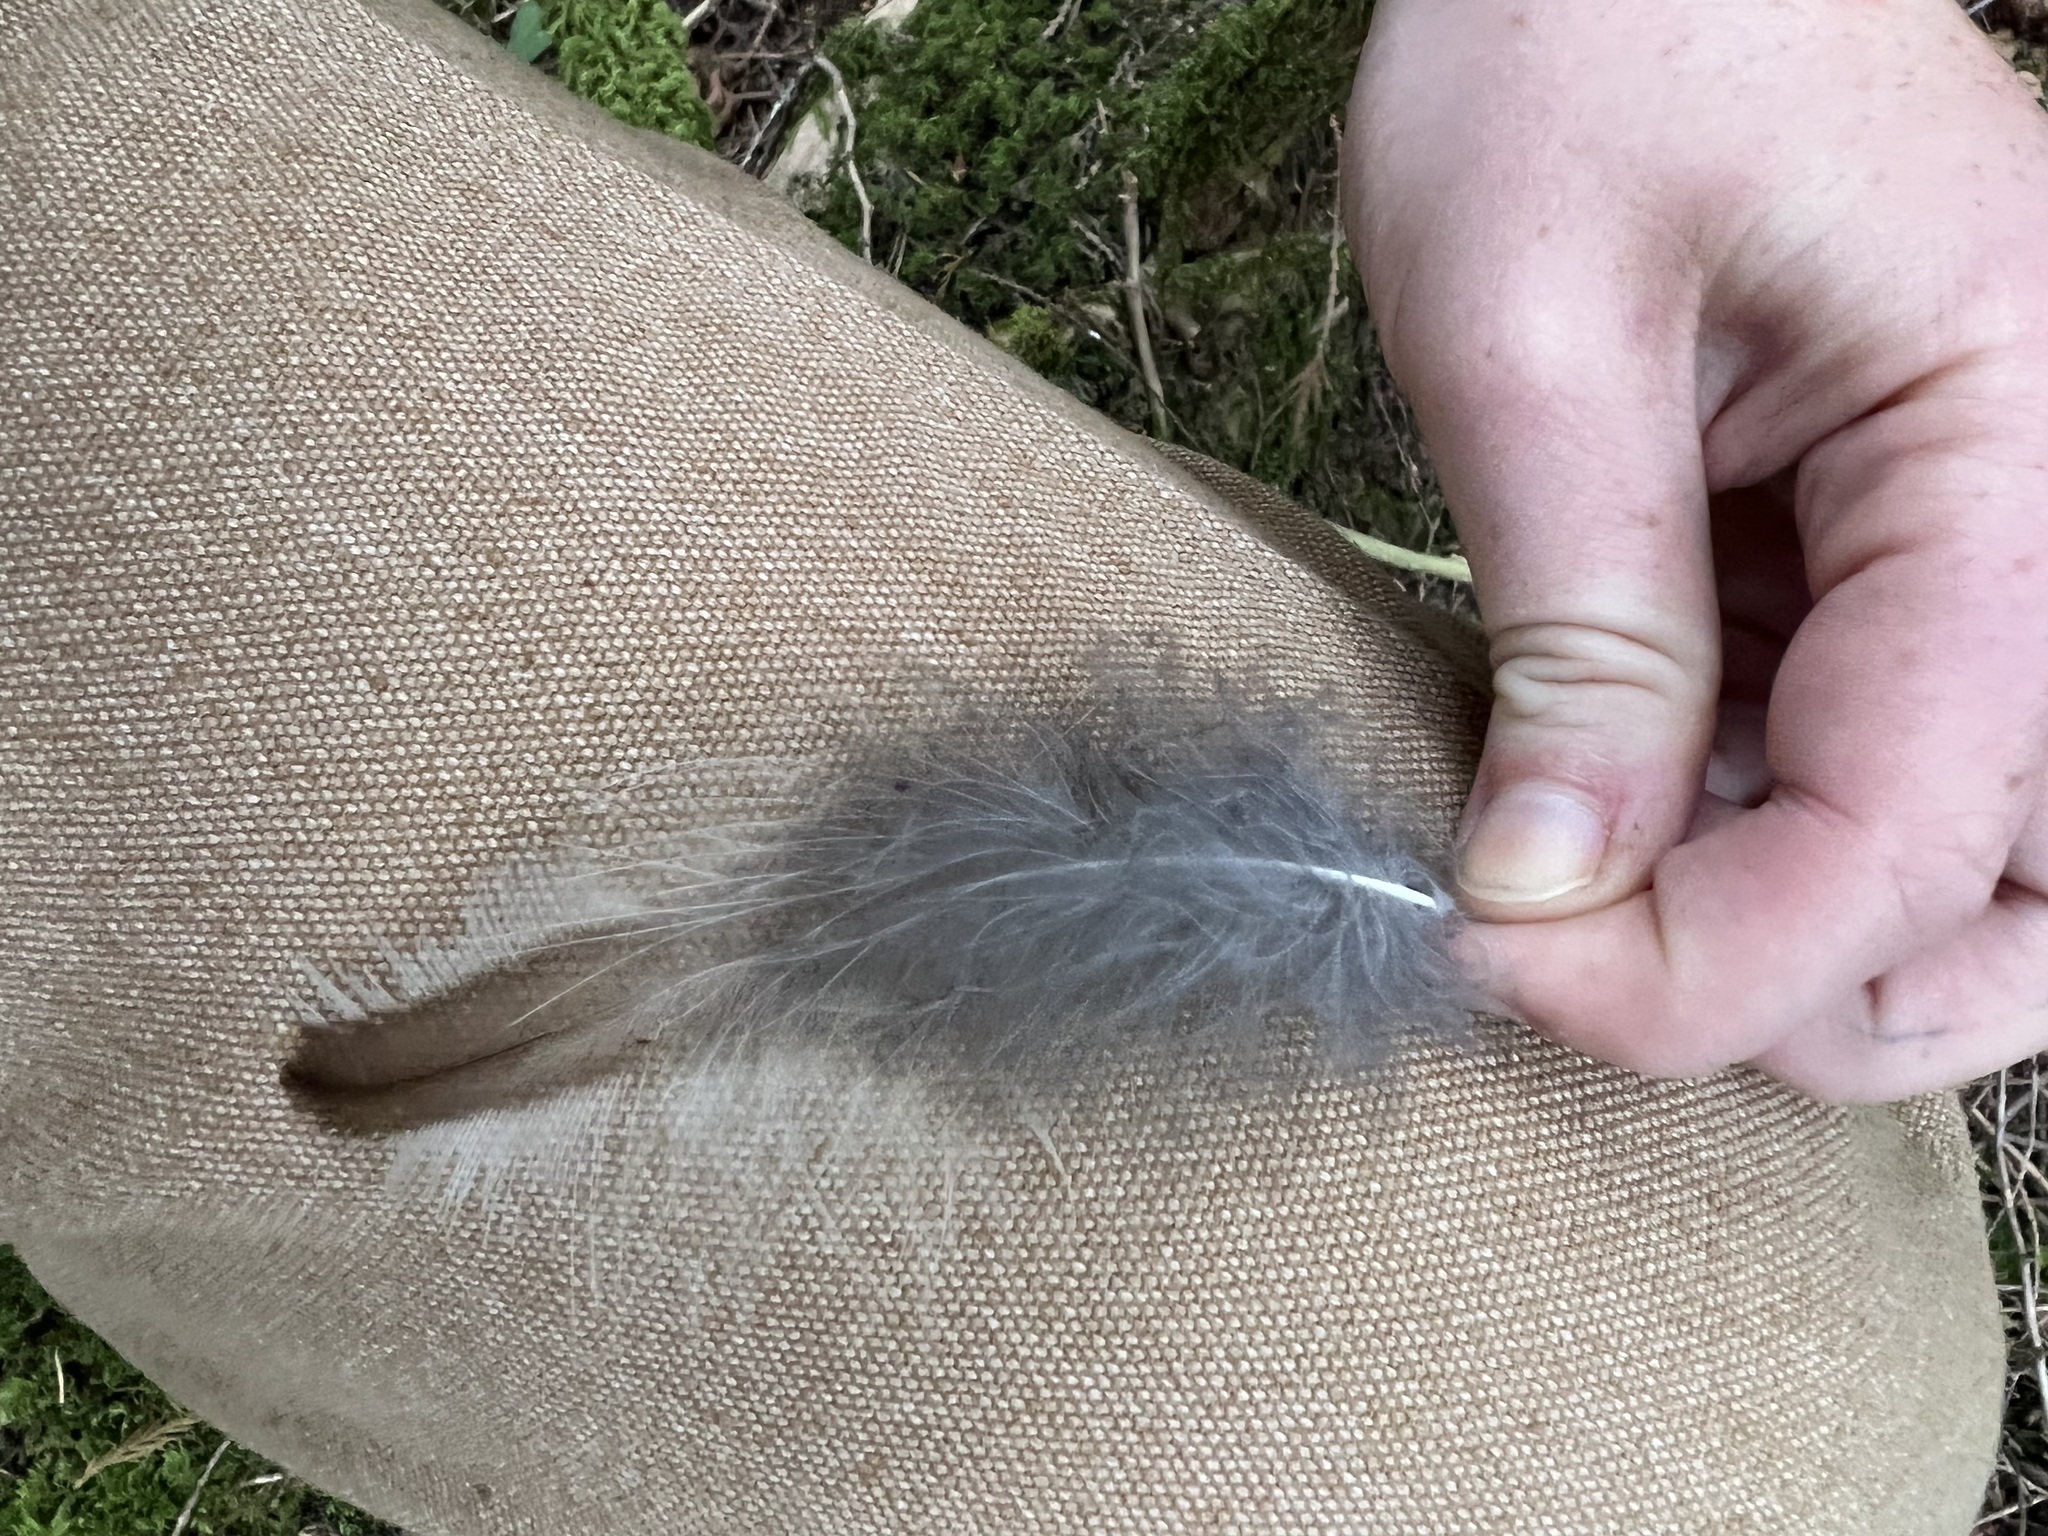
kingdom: Animalia
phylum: Chordata
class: Aves
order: Strigiformes
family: Strigidae
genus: Strix
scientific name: Strix varia
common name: Barred owl
